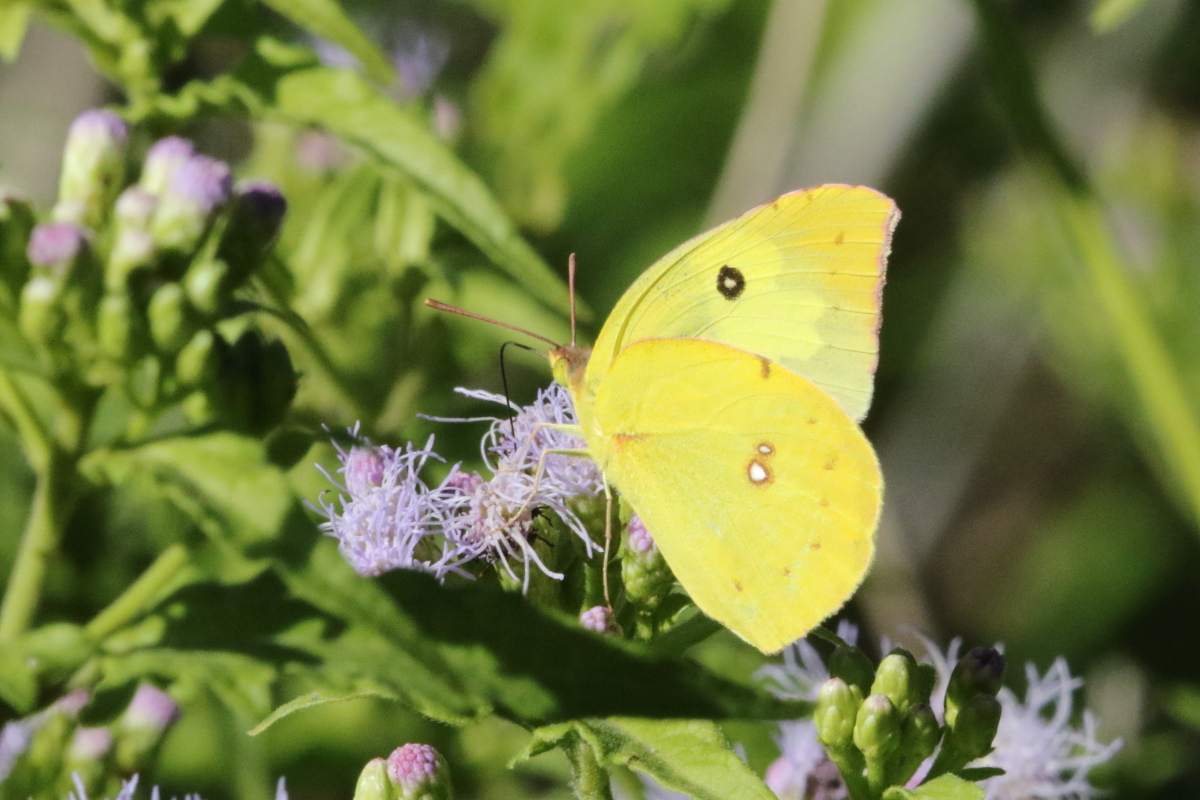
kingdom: Animalia
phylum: Arthropoda
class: Insecta
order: Lepidoptera
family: Pieridae
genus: Zerene
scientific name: Zerene cesonia
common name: Southern dogface
